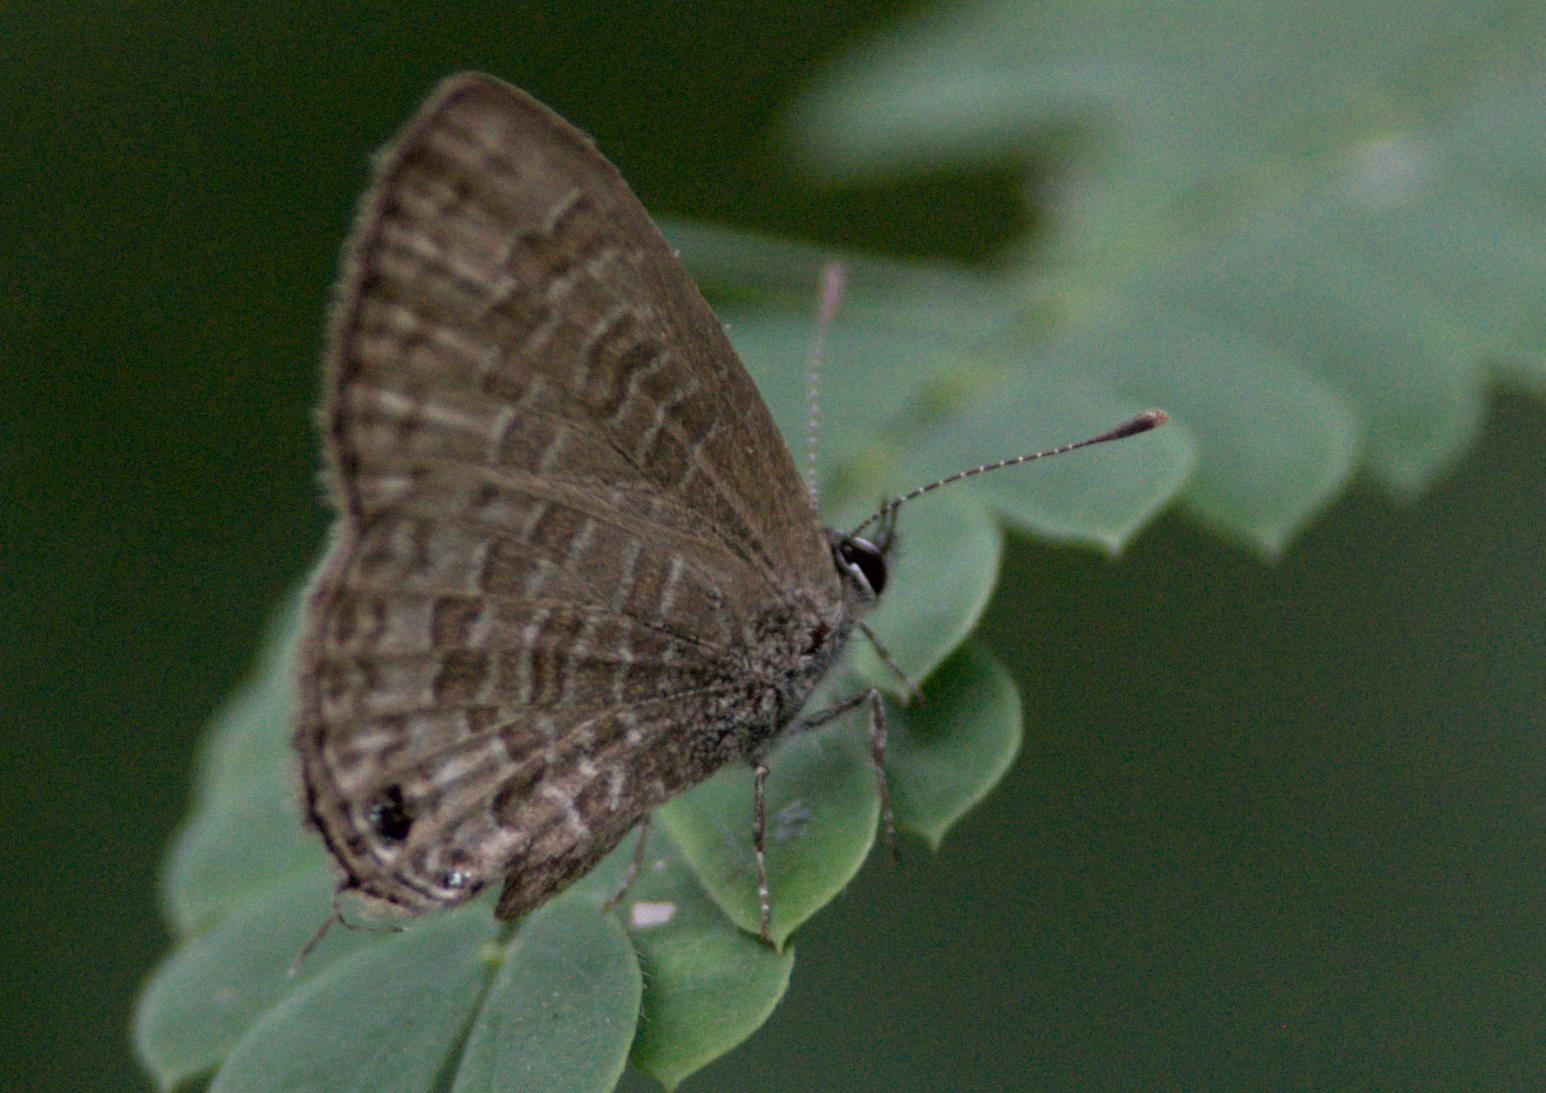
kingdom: Animalia
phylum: Arthropoda
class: Insecta
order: Lepidoptera
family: Lycaenidae
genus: Prosotas
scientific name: Prosotas nora
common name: Common line blue
